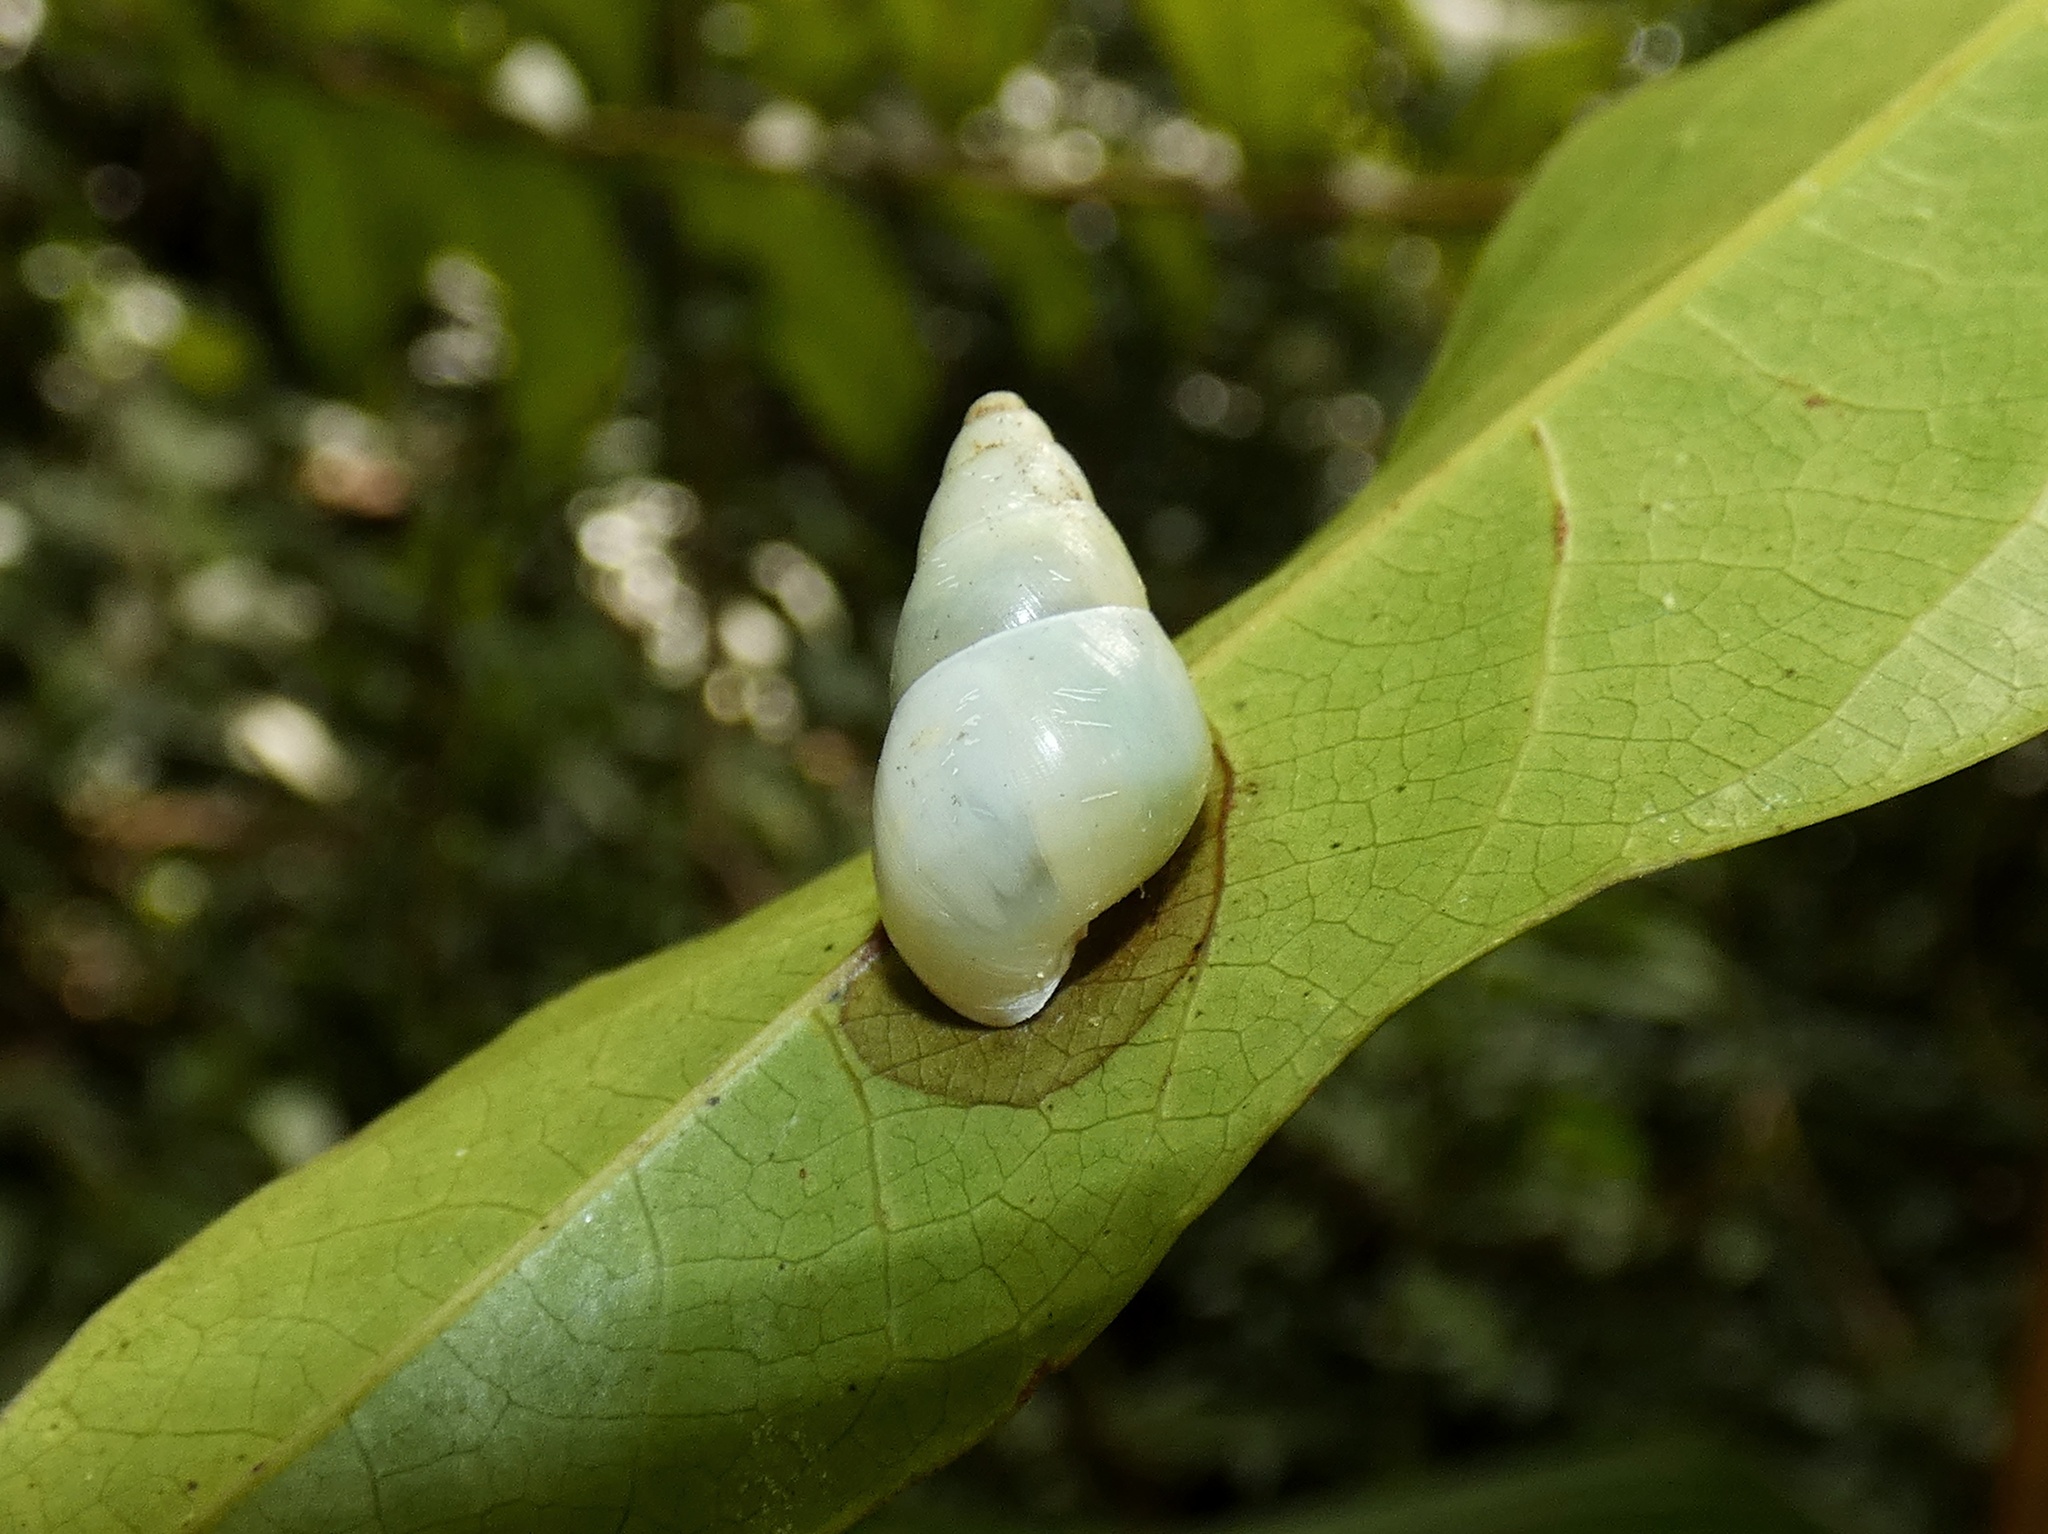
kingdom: Animalia
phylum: Mollusca
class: Gastropoda
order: Stylommatophora
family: Bulimulidae
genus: Drymaeus
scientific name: Drymaeus sulphureus
